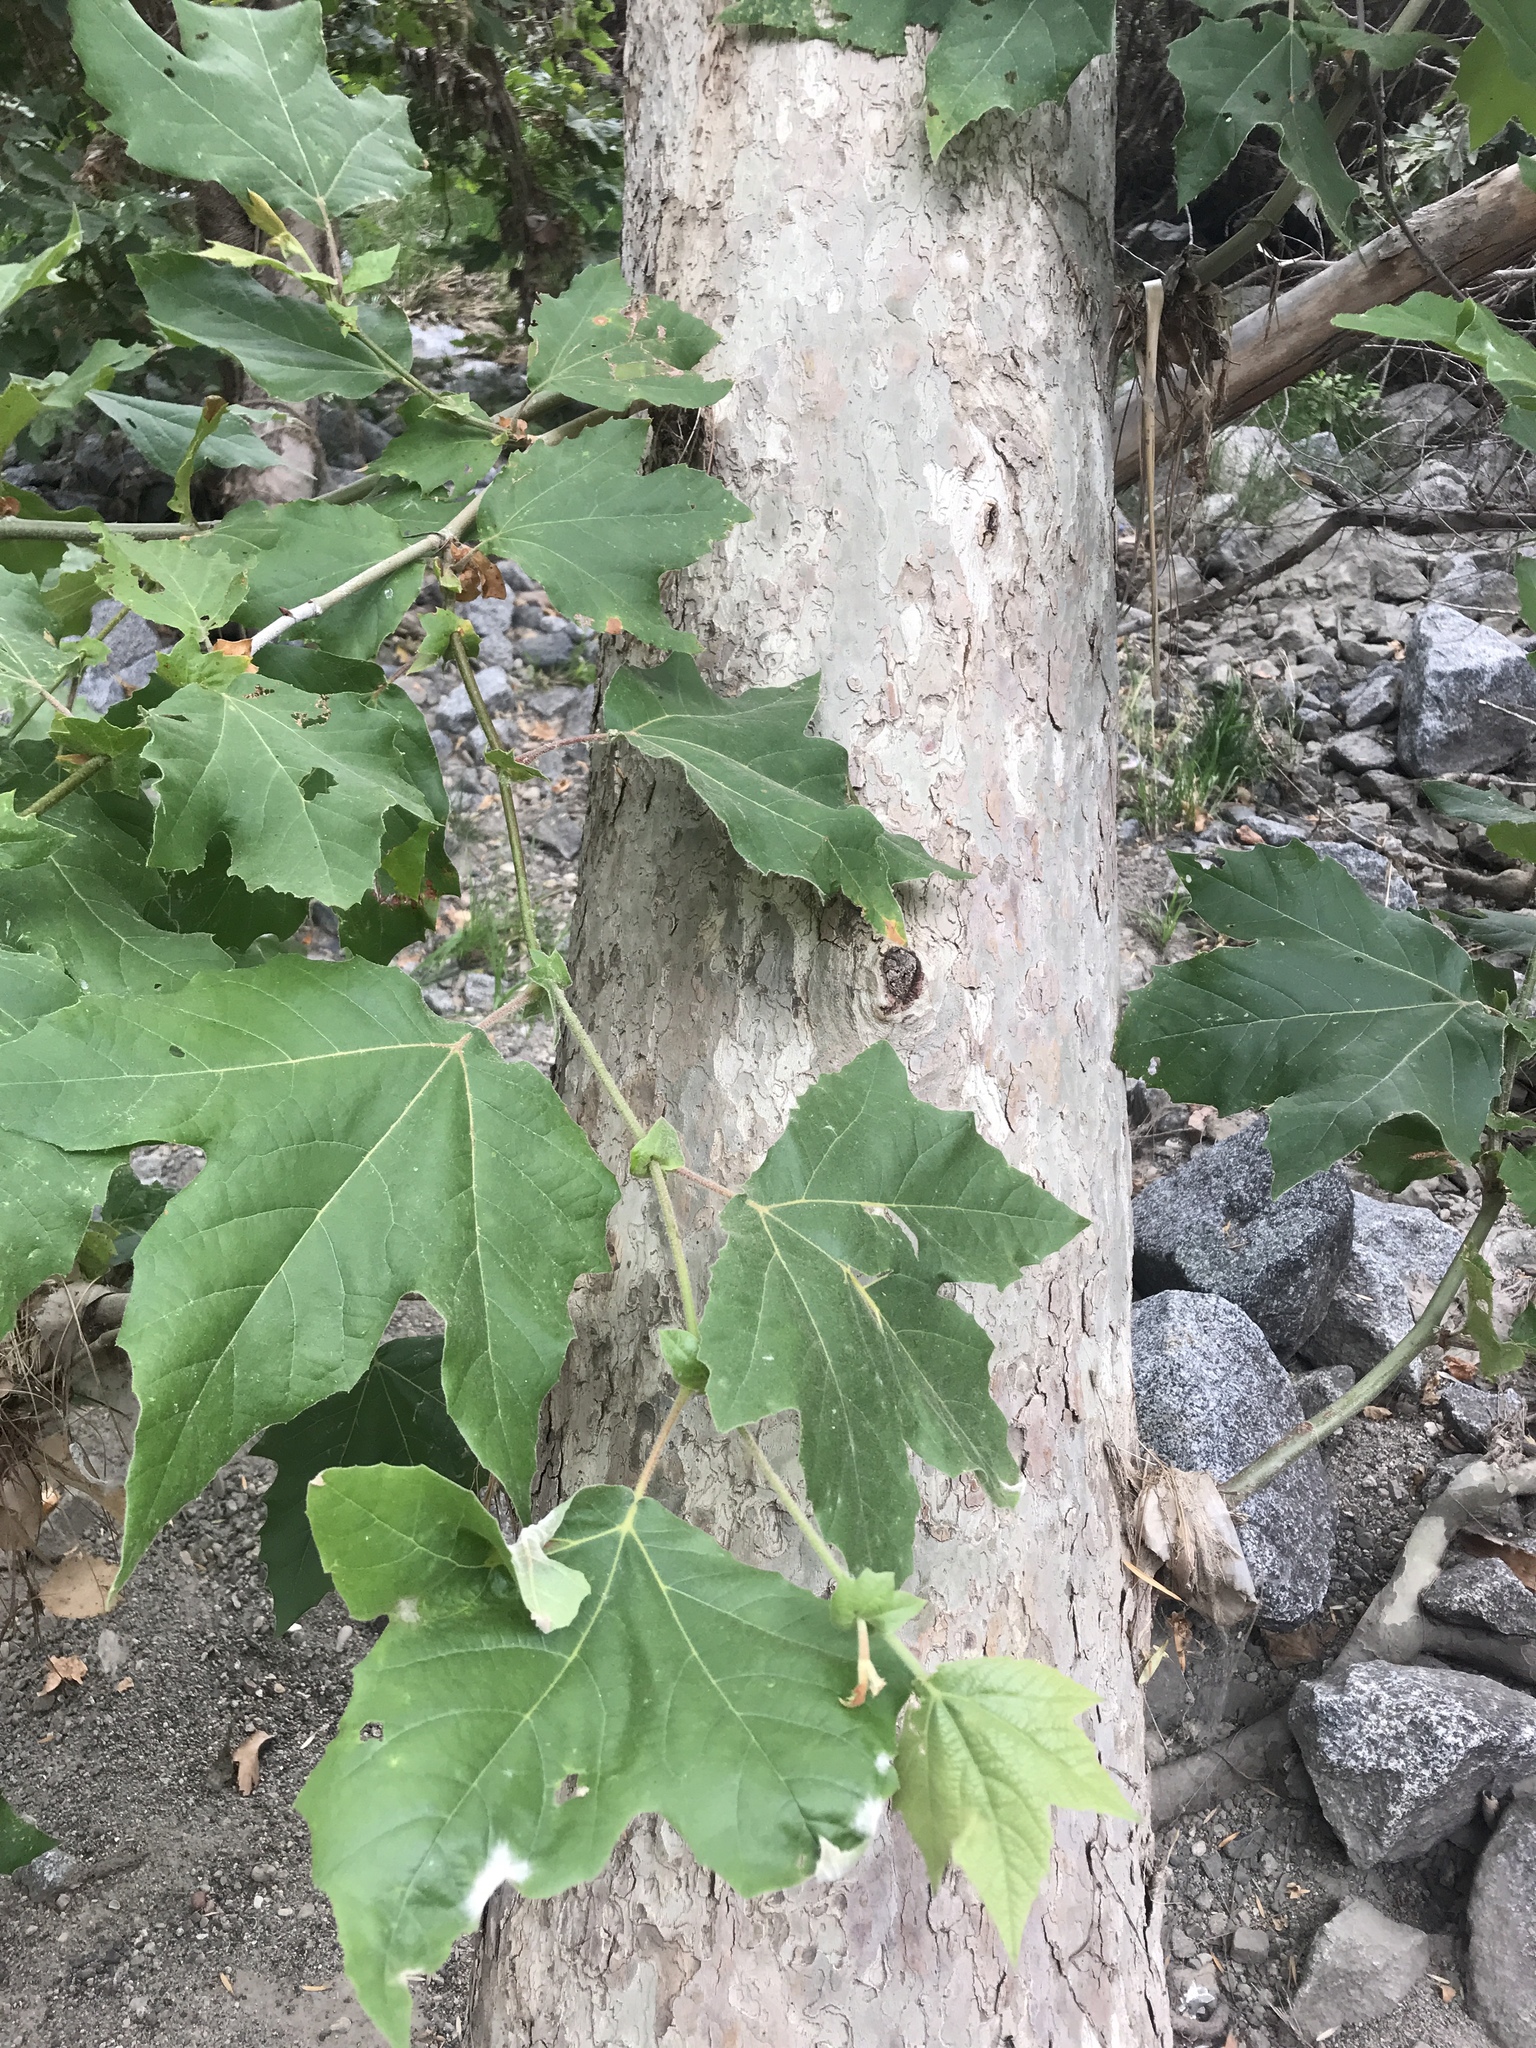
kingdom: Plantae
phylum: Tracheophyta
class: Magnoliopsida
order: Proteales
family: Platanaceae
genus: Platanus
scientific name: Platanus racemosa
